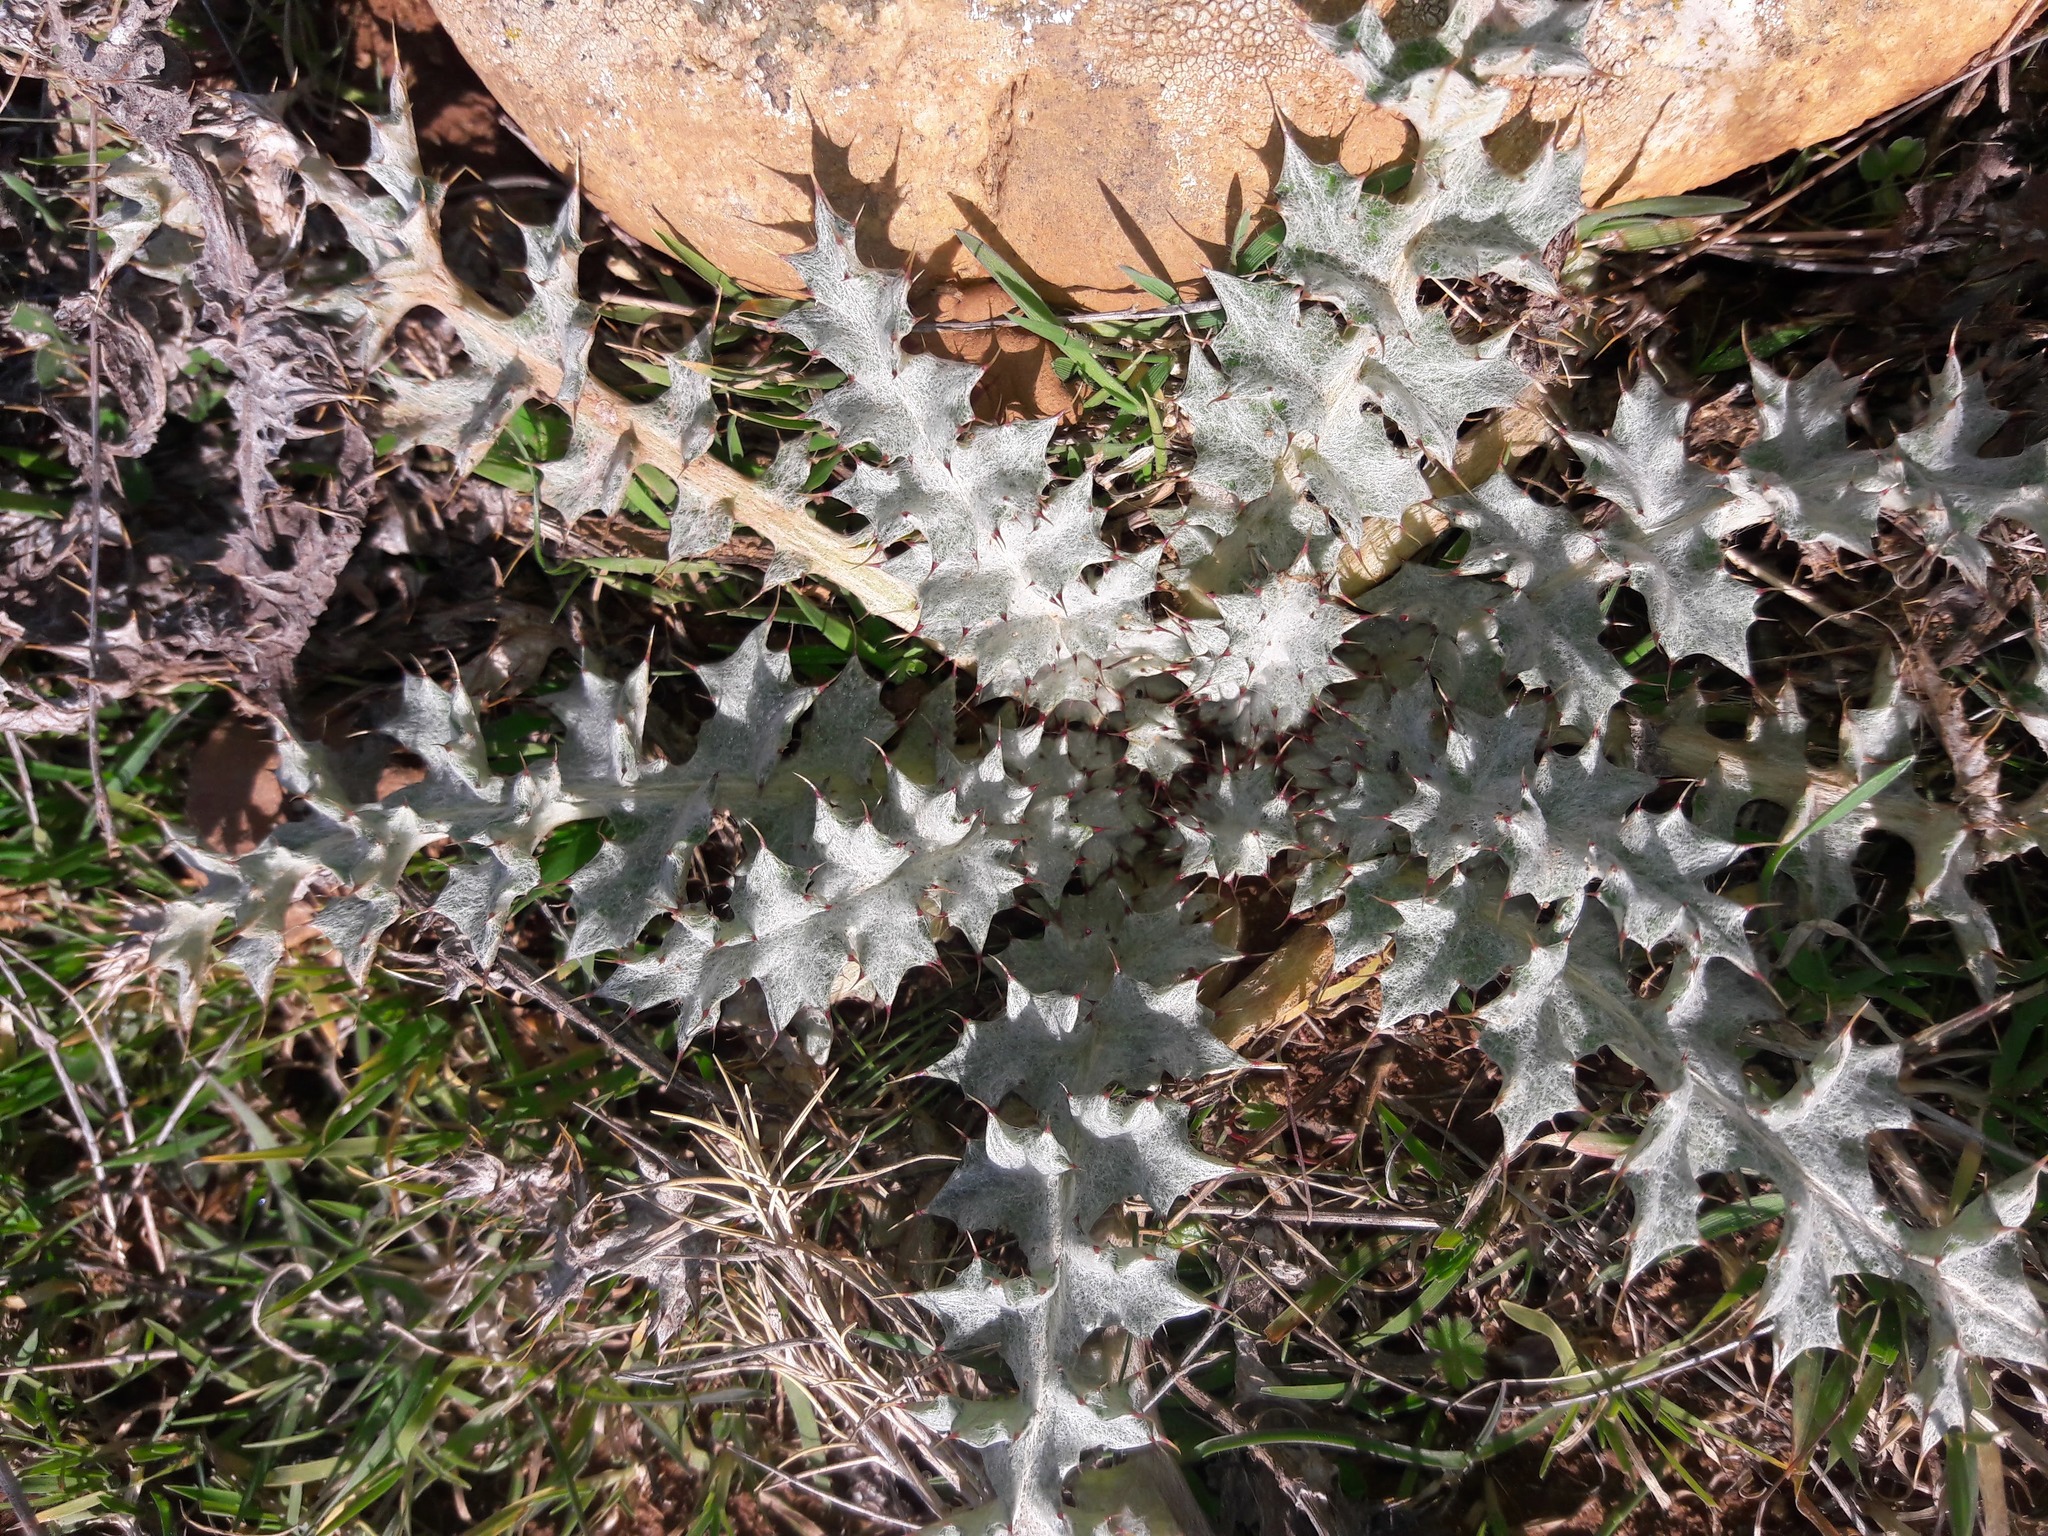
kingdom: Plantae
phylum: Tracheophyta
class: Magnoliopsida
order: Asterales
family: Asteraceae
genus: Onopordum
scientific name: Onopordum illyricum
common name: Illyrian thistle
